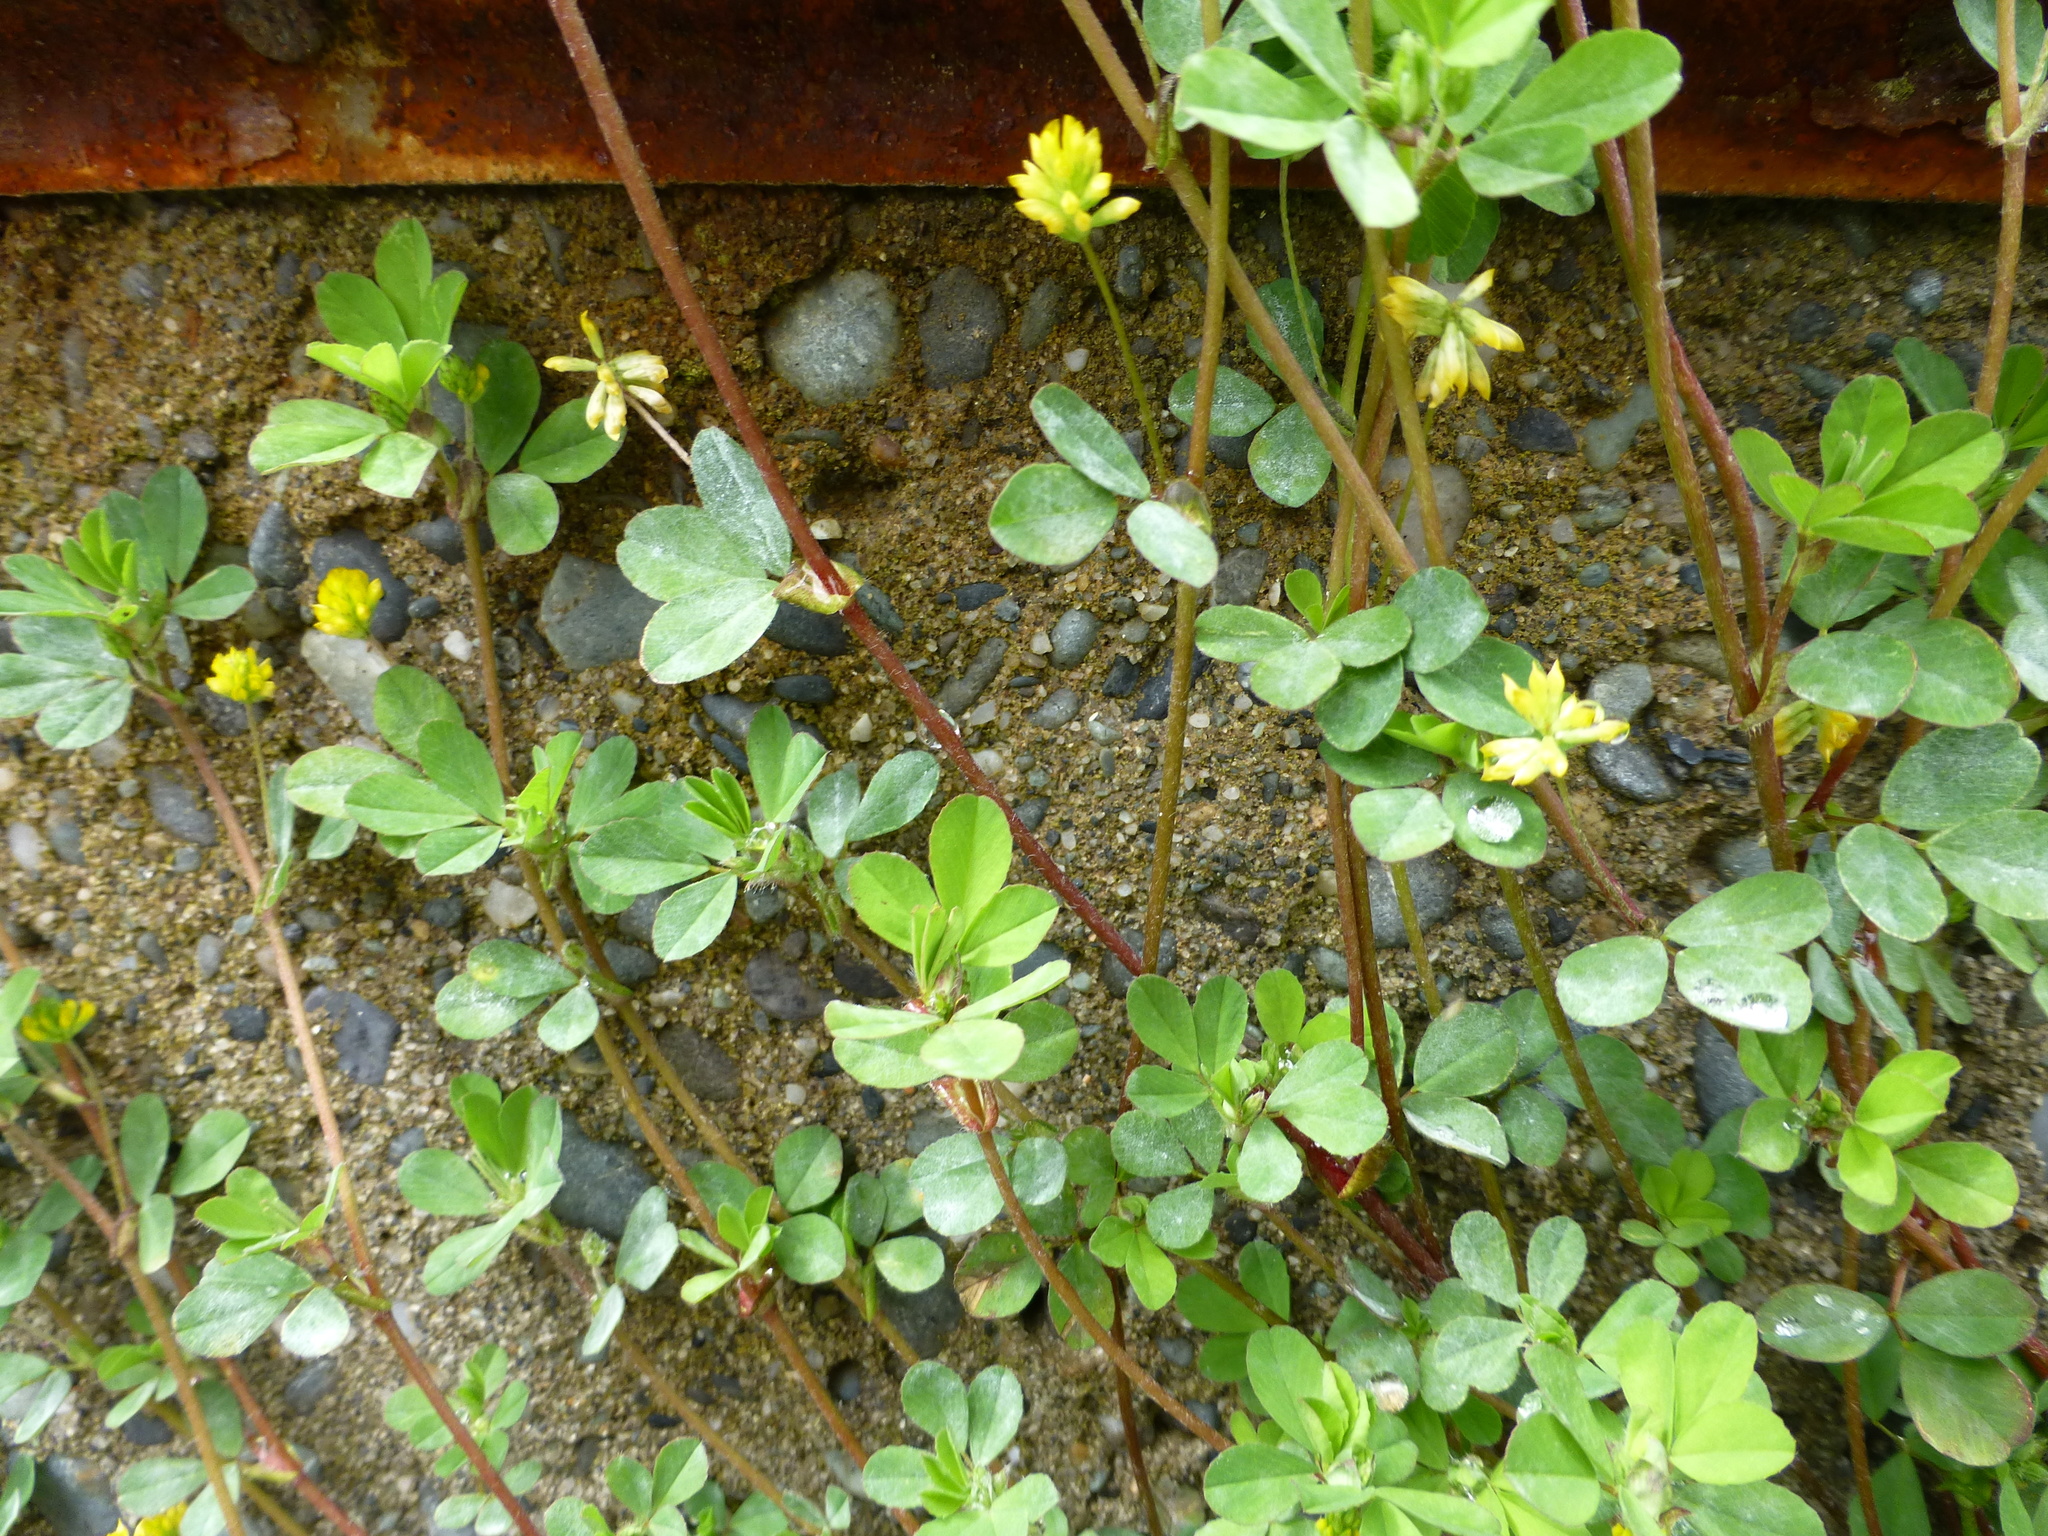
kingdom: Plantae
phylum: Tracheophyta
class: Magnoliopsida
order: Fabales
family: Fabaceae
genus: Trifolium
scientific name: Trifolium dubium
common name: Suckling clover
